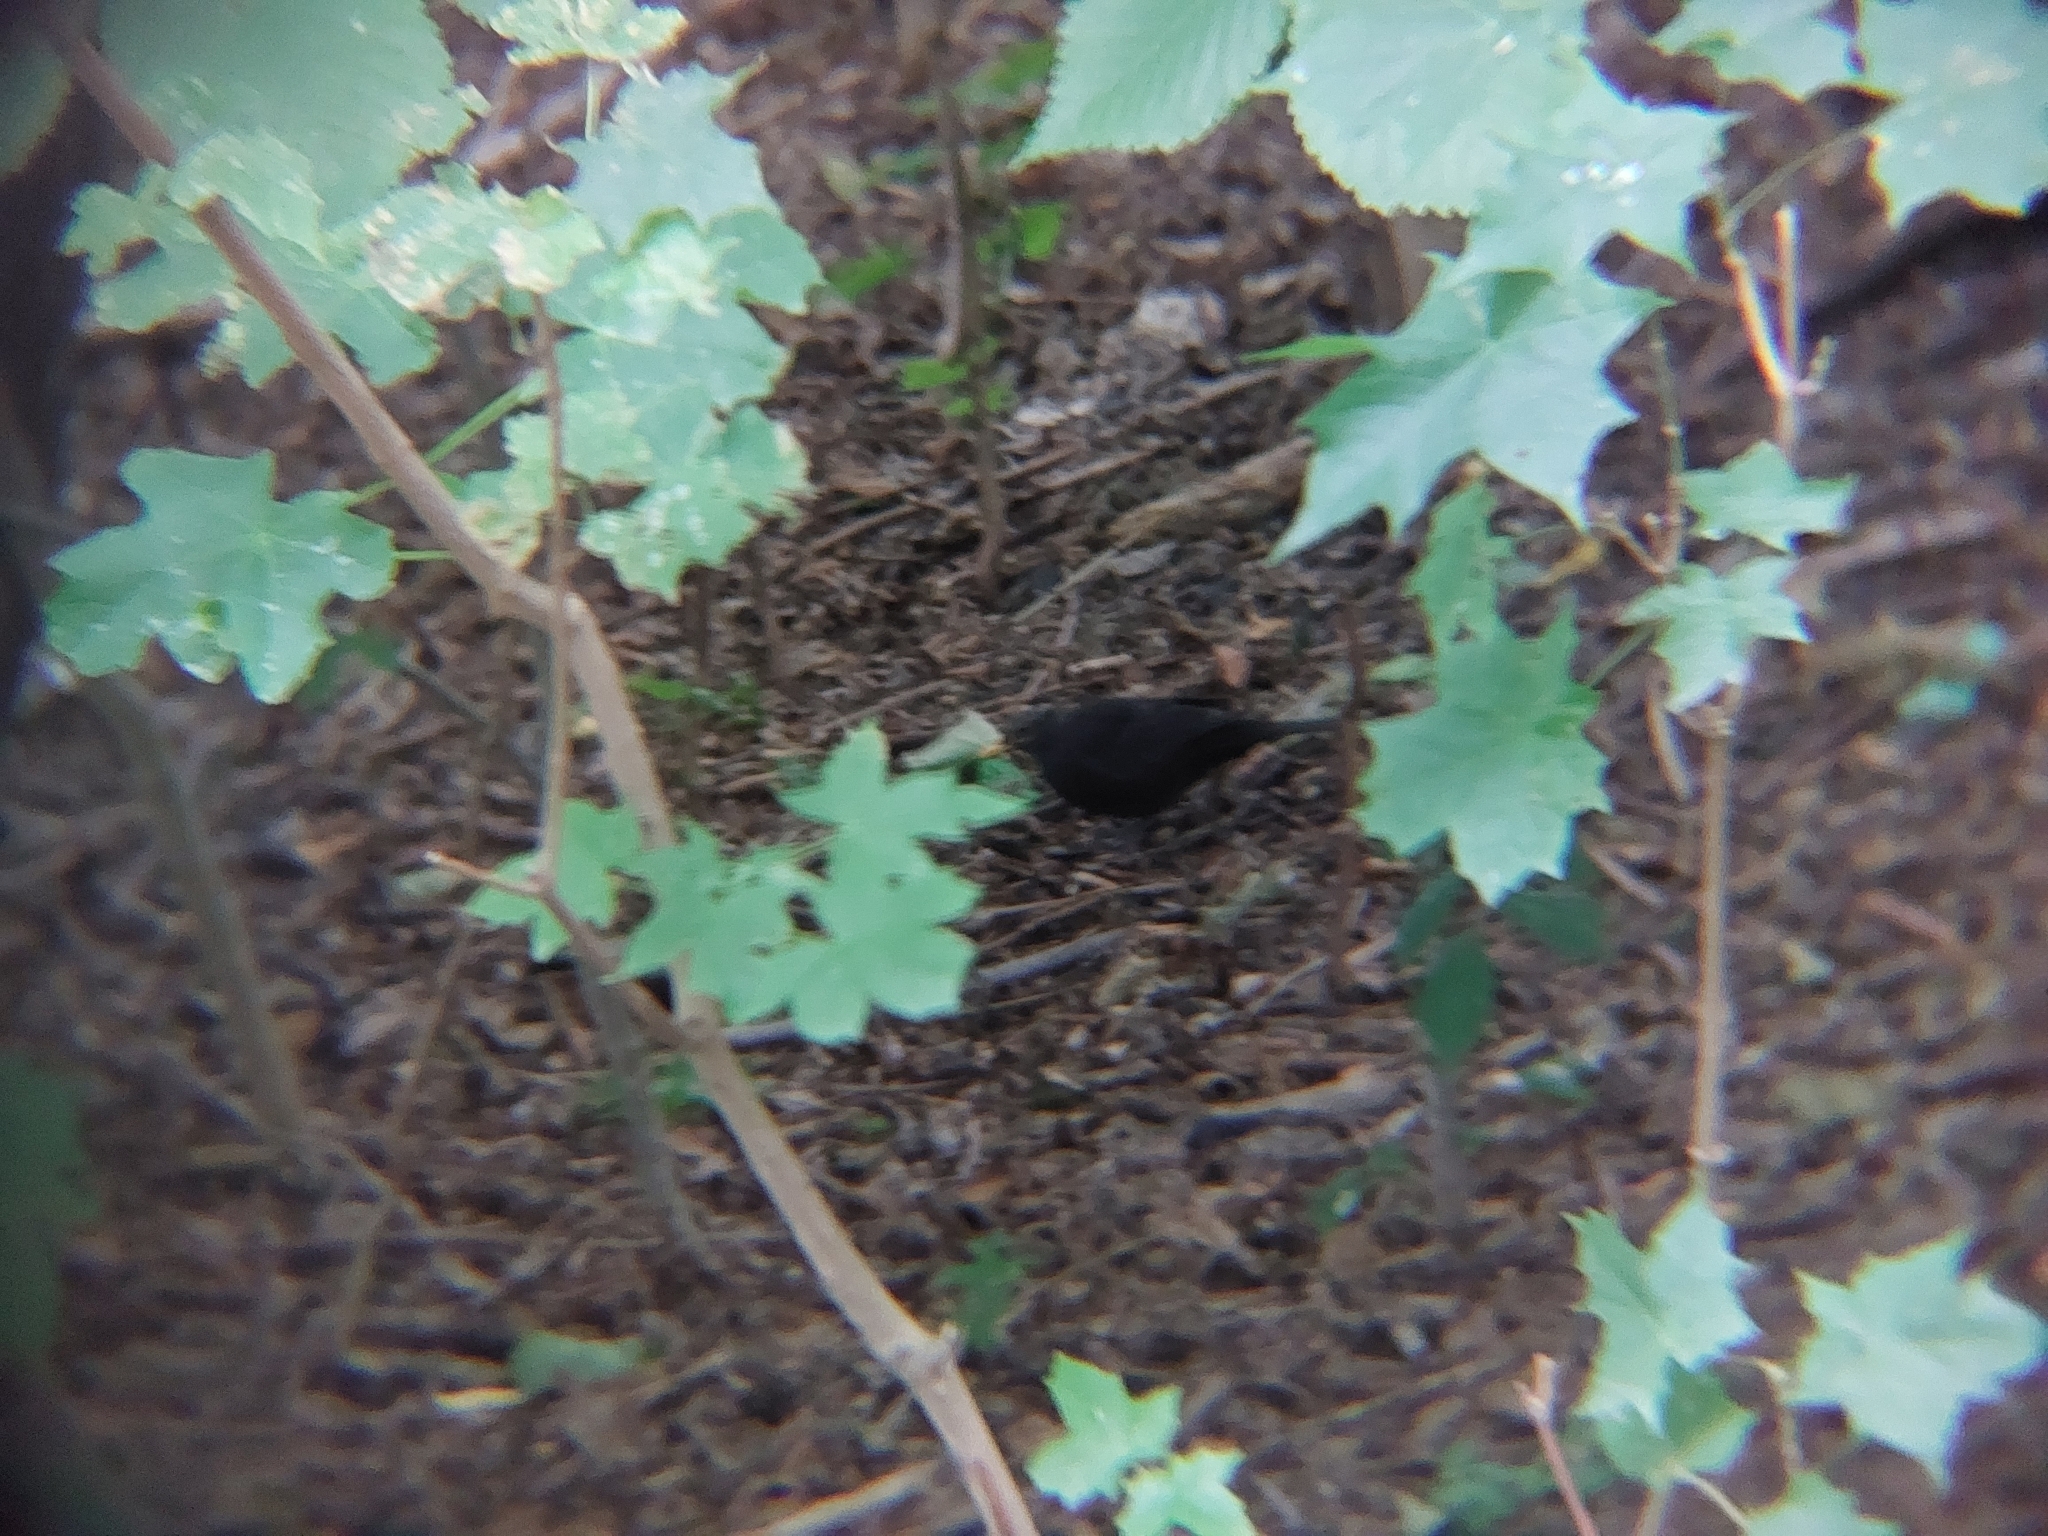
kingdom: Animalia
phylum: Chordata
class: Aves
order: Passeriformes
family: Turdidae
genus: Turdus
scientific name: Turdus merula
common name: Common blackbird
